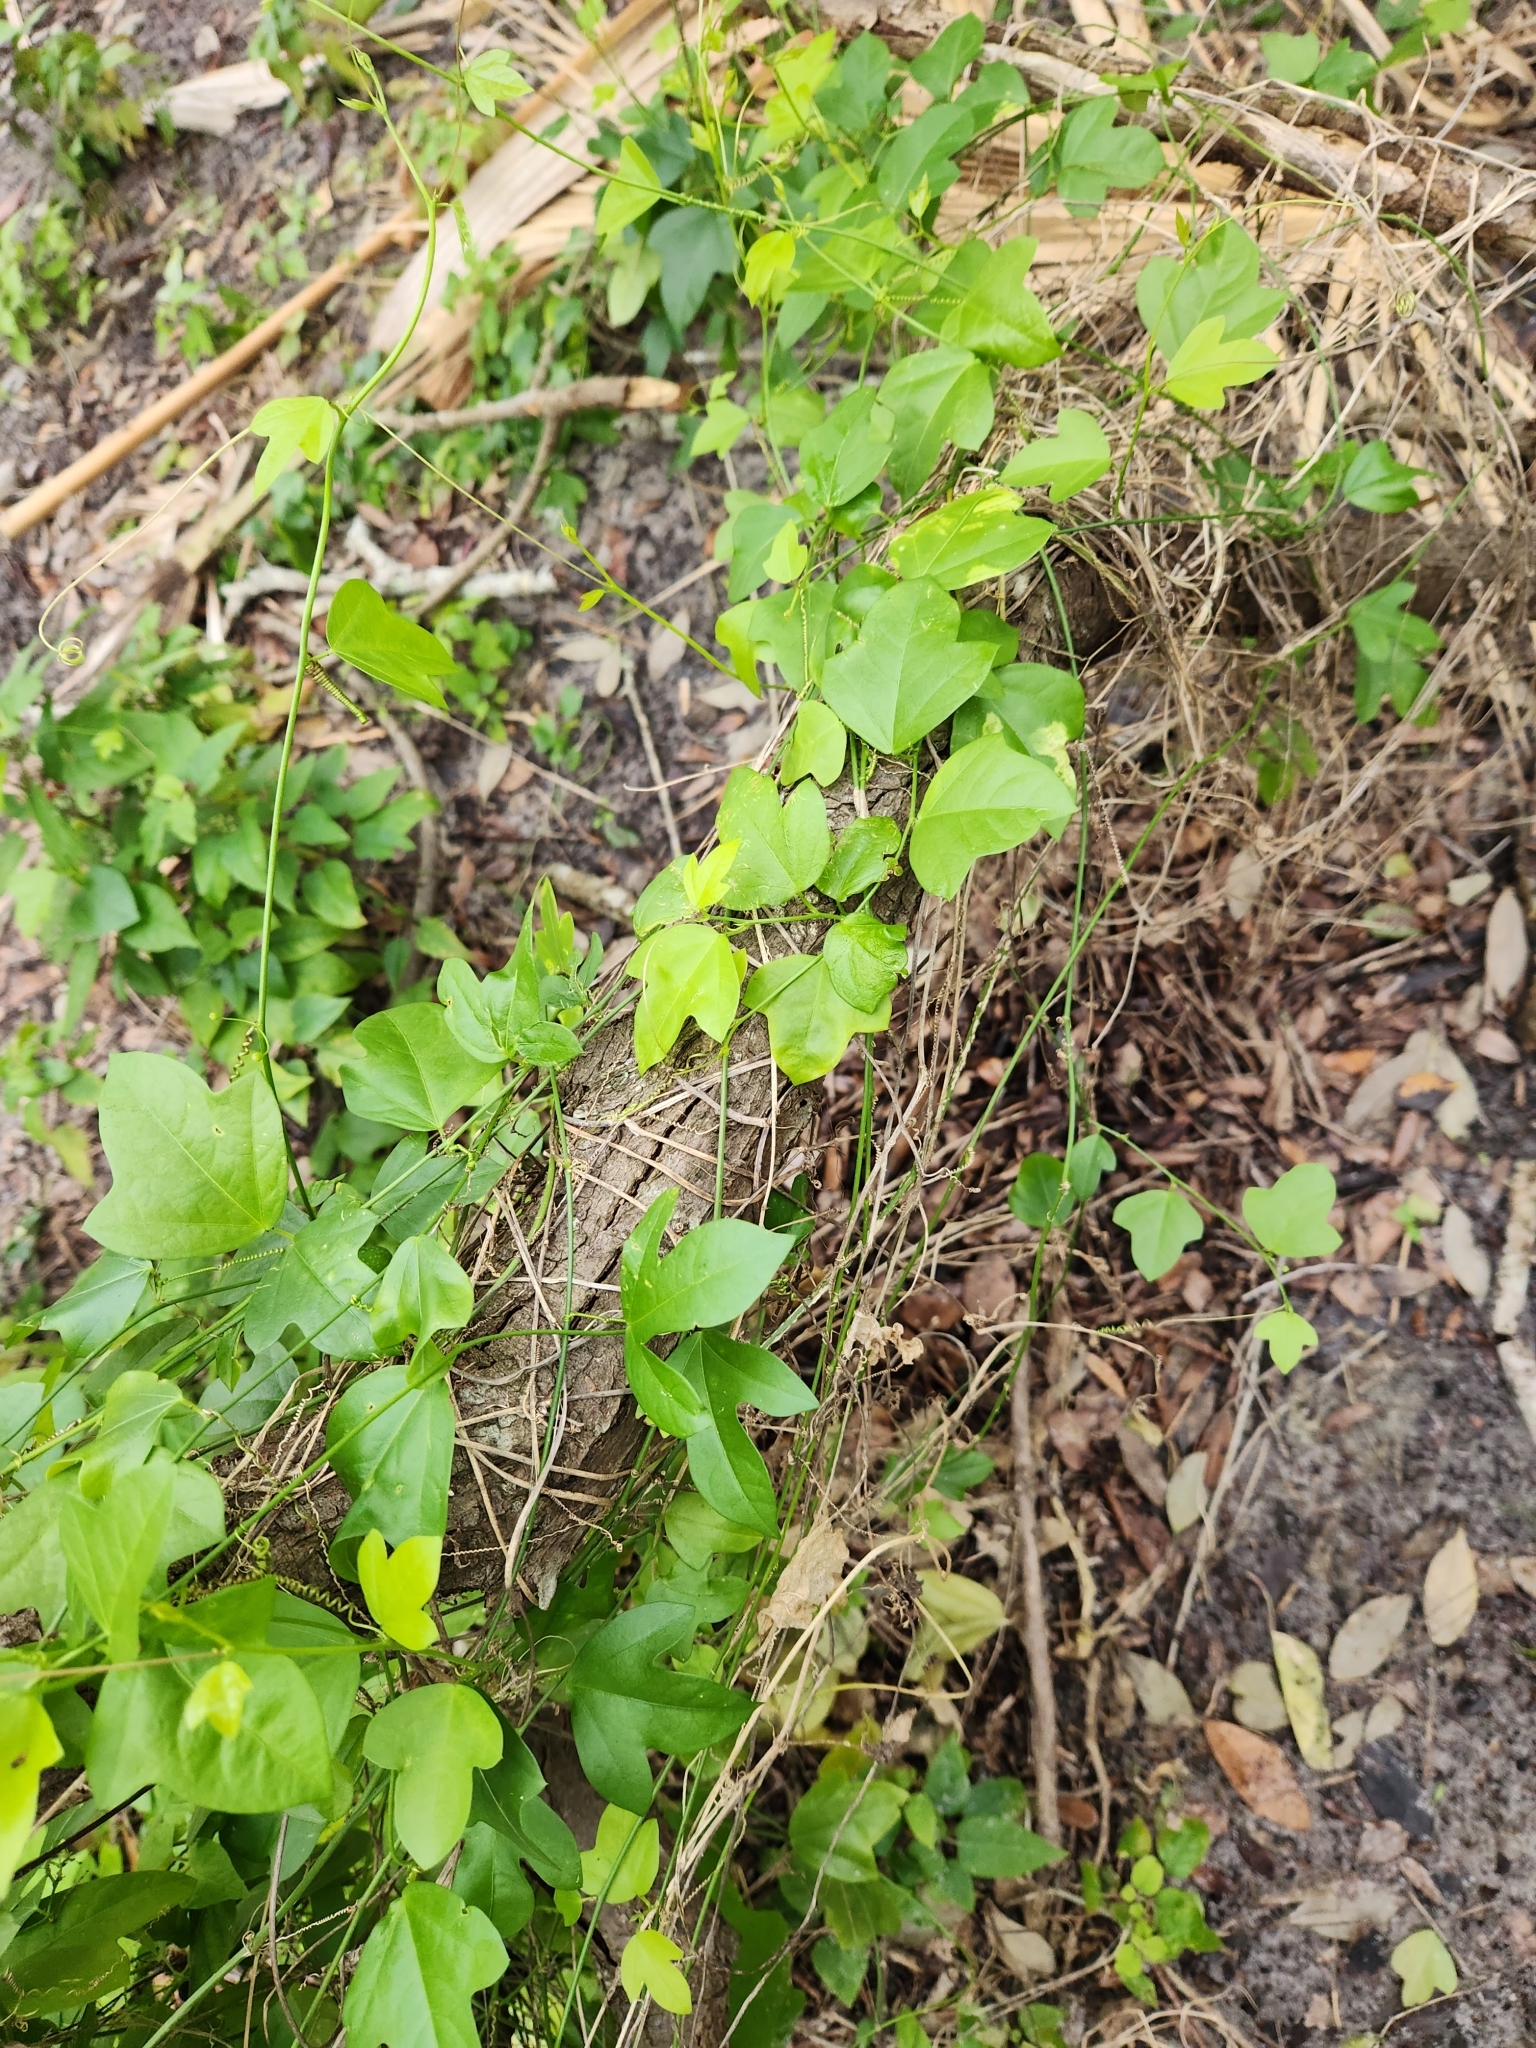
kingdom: Plantae
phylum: Tracheophyta
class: Magnoliopsida
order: Malpighiales
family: Passifloraceae
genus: Passiflora
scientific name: Passiflora pallida
